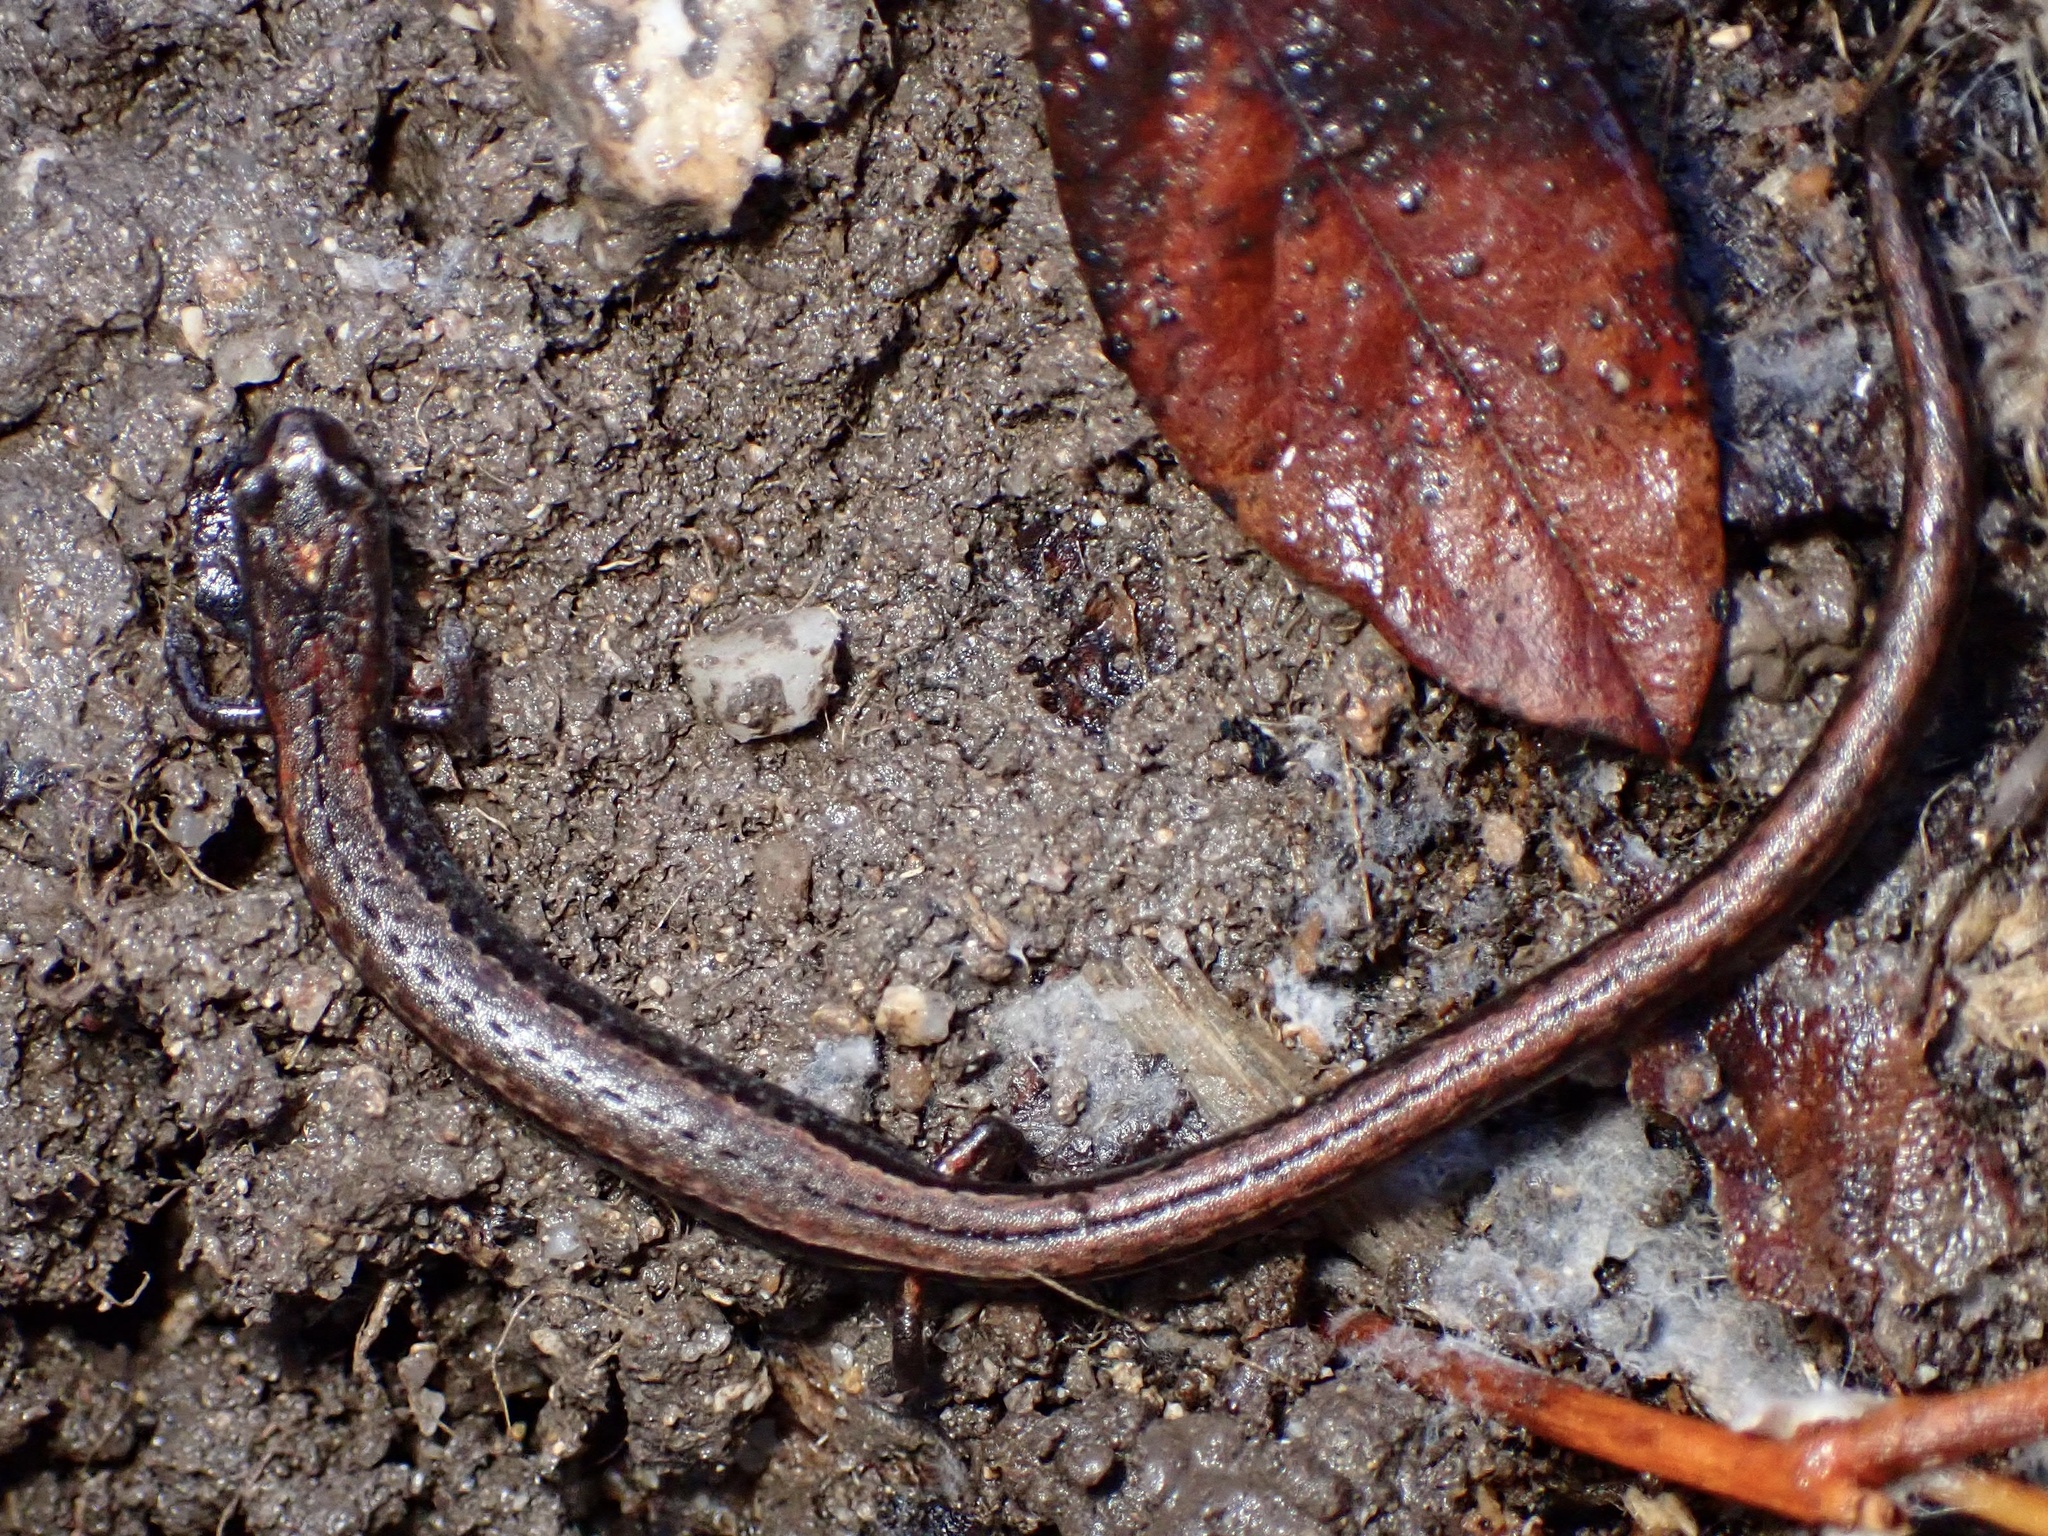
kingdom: Animalia
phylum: Chordata
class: Amphibia
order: Caudata
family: Plethodontidae
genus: Batrachoseps
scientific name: Batrachoseps attenuatus
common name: California slender salamander
